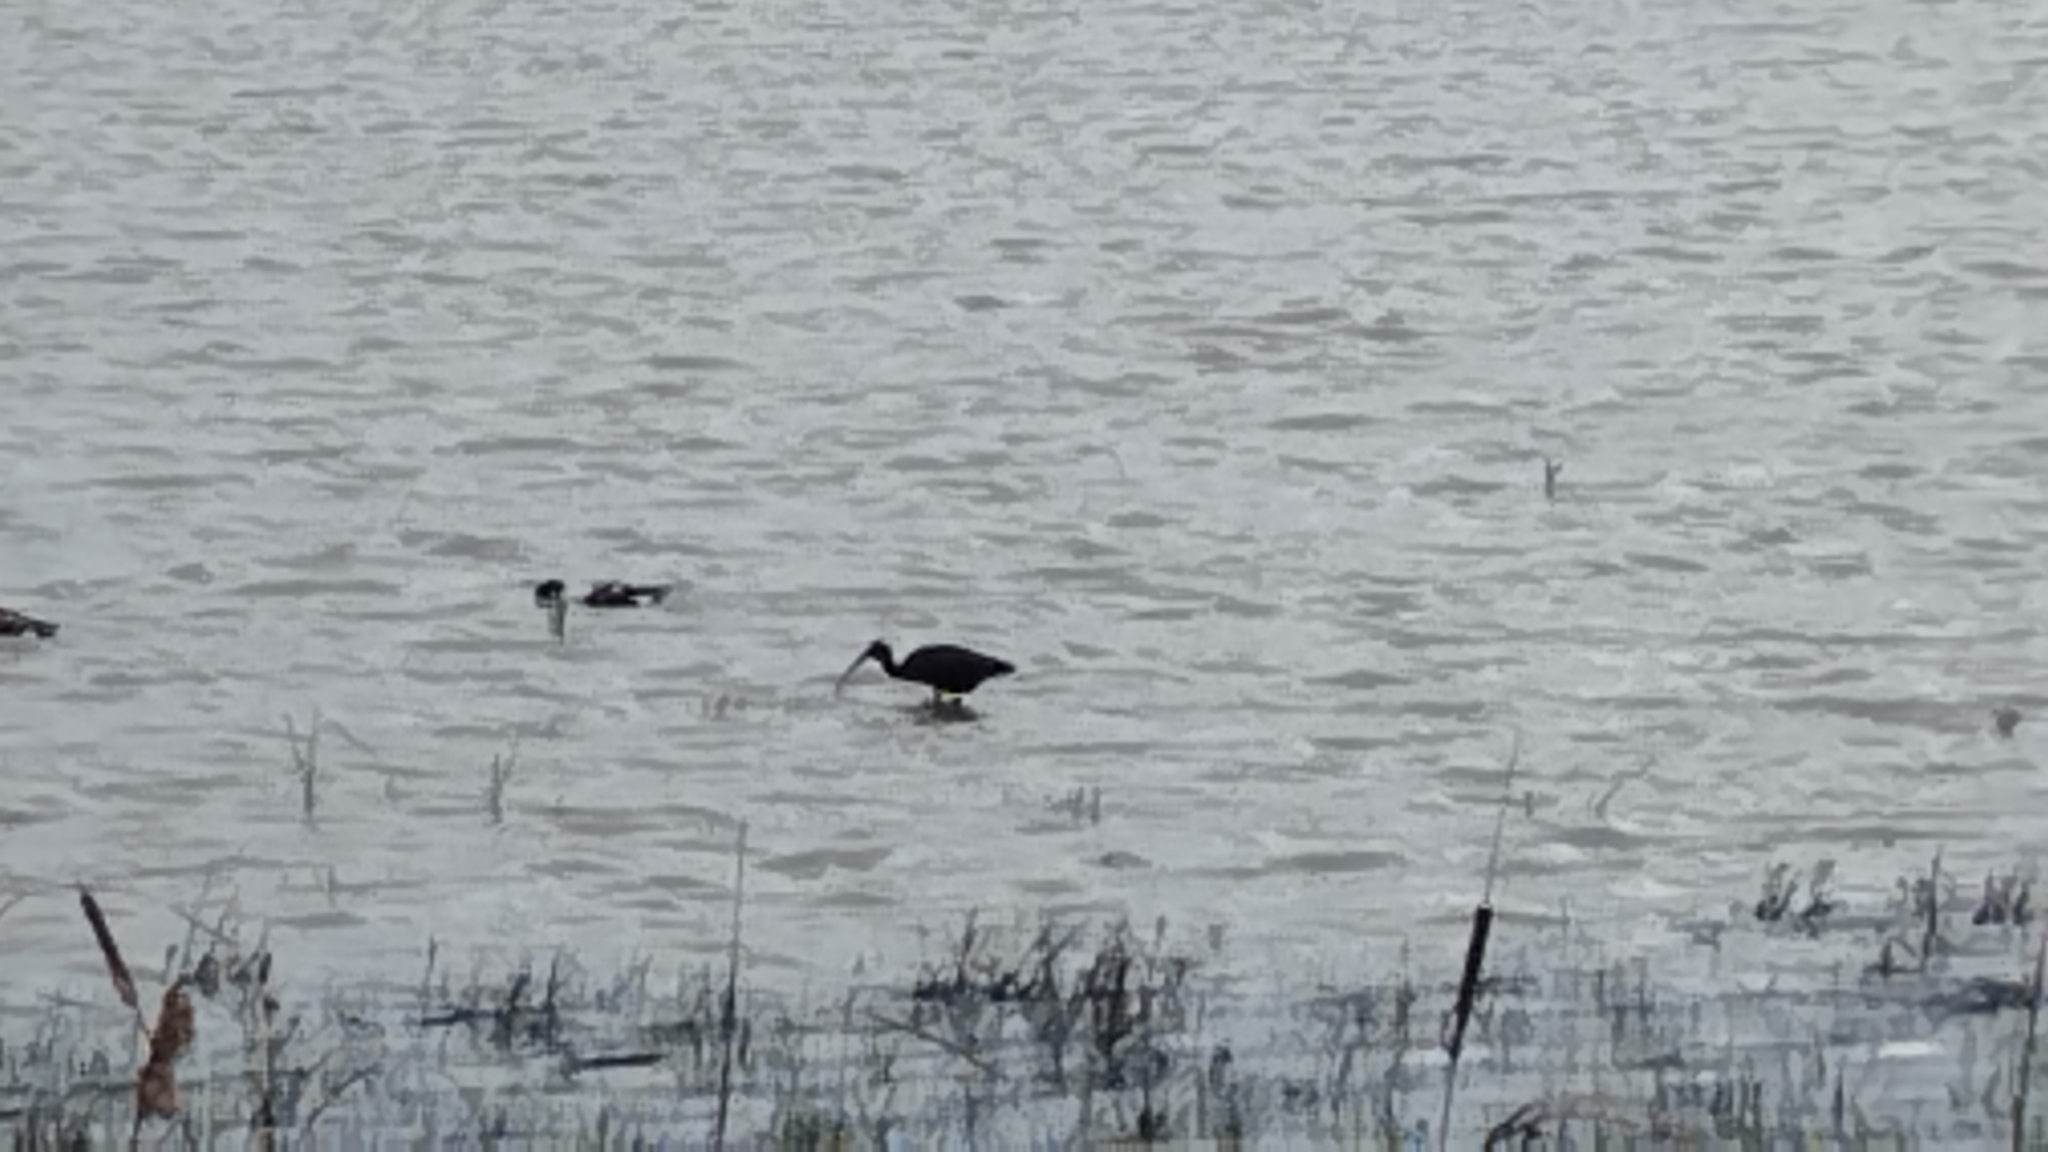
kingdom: Animalia
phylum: Chordata
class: Aves
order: Pelecaniformes
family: Threskiornithidae
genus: Plegadis
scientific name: Plegadis falcinellus
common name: Glossy ibis
